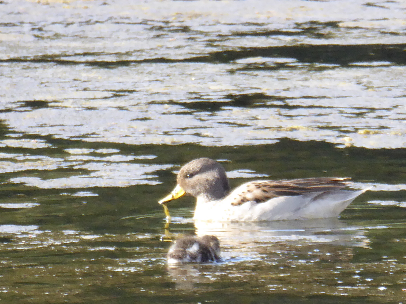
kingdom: Animalia
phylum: Chordata
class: Aves
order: Anseriformes
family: Anatidae
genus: Anas
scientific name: Anas flavirostris
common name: Yellow-billed teal
